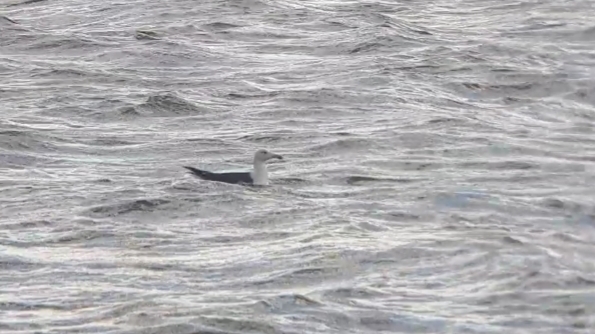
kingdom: Animalia
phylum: Chordata
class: Aves
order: Charadriiformes
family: Laridae
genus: Larus
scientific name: Larus marinus
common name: Great black-backed gull
